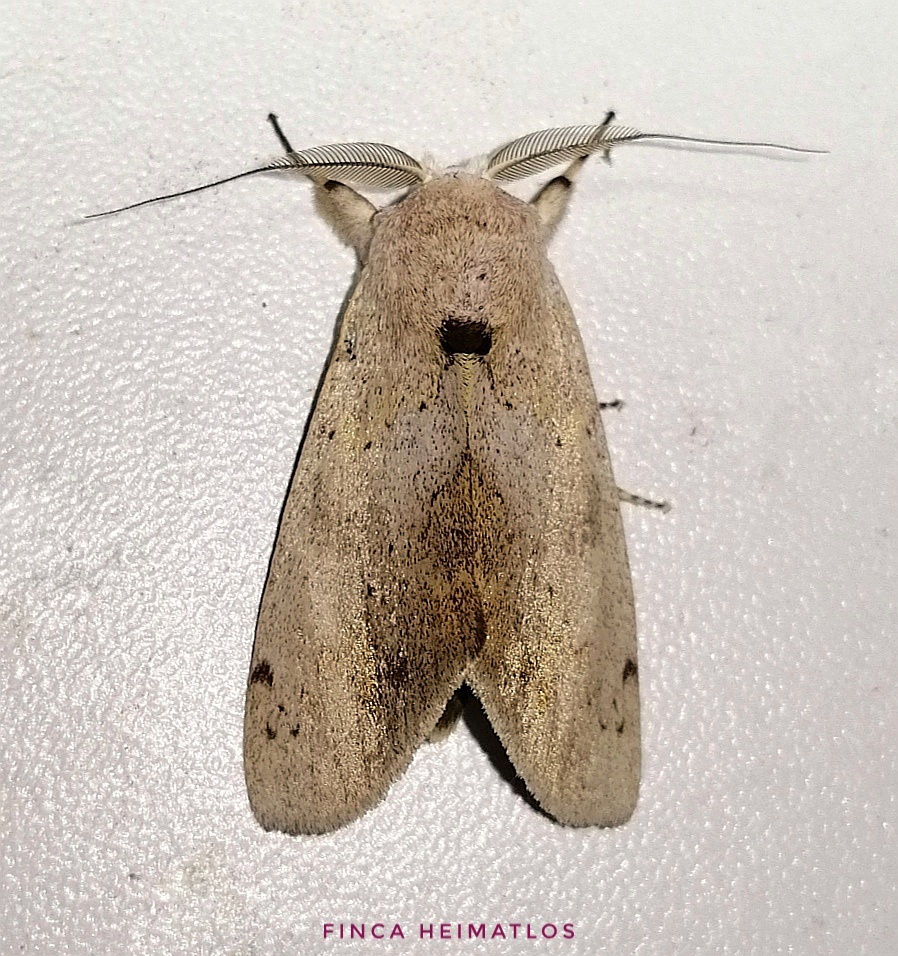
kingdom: Animalia
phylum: Arthropoda
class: Insecta
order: Lepidoptera
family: Notodontidae
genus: Hemiceras
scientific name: Hemiceras
